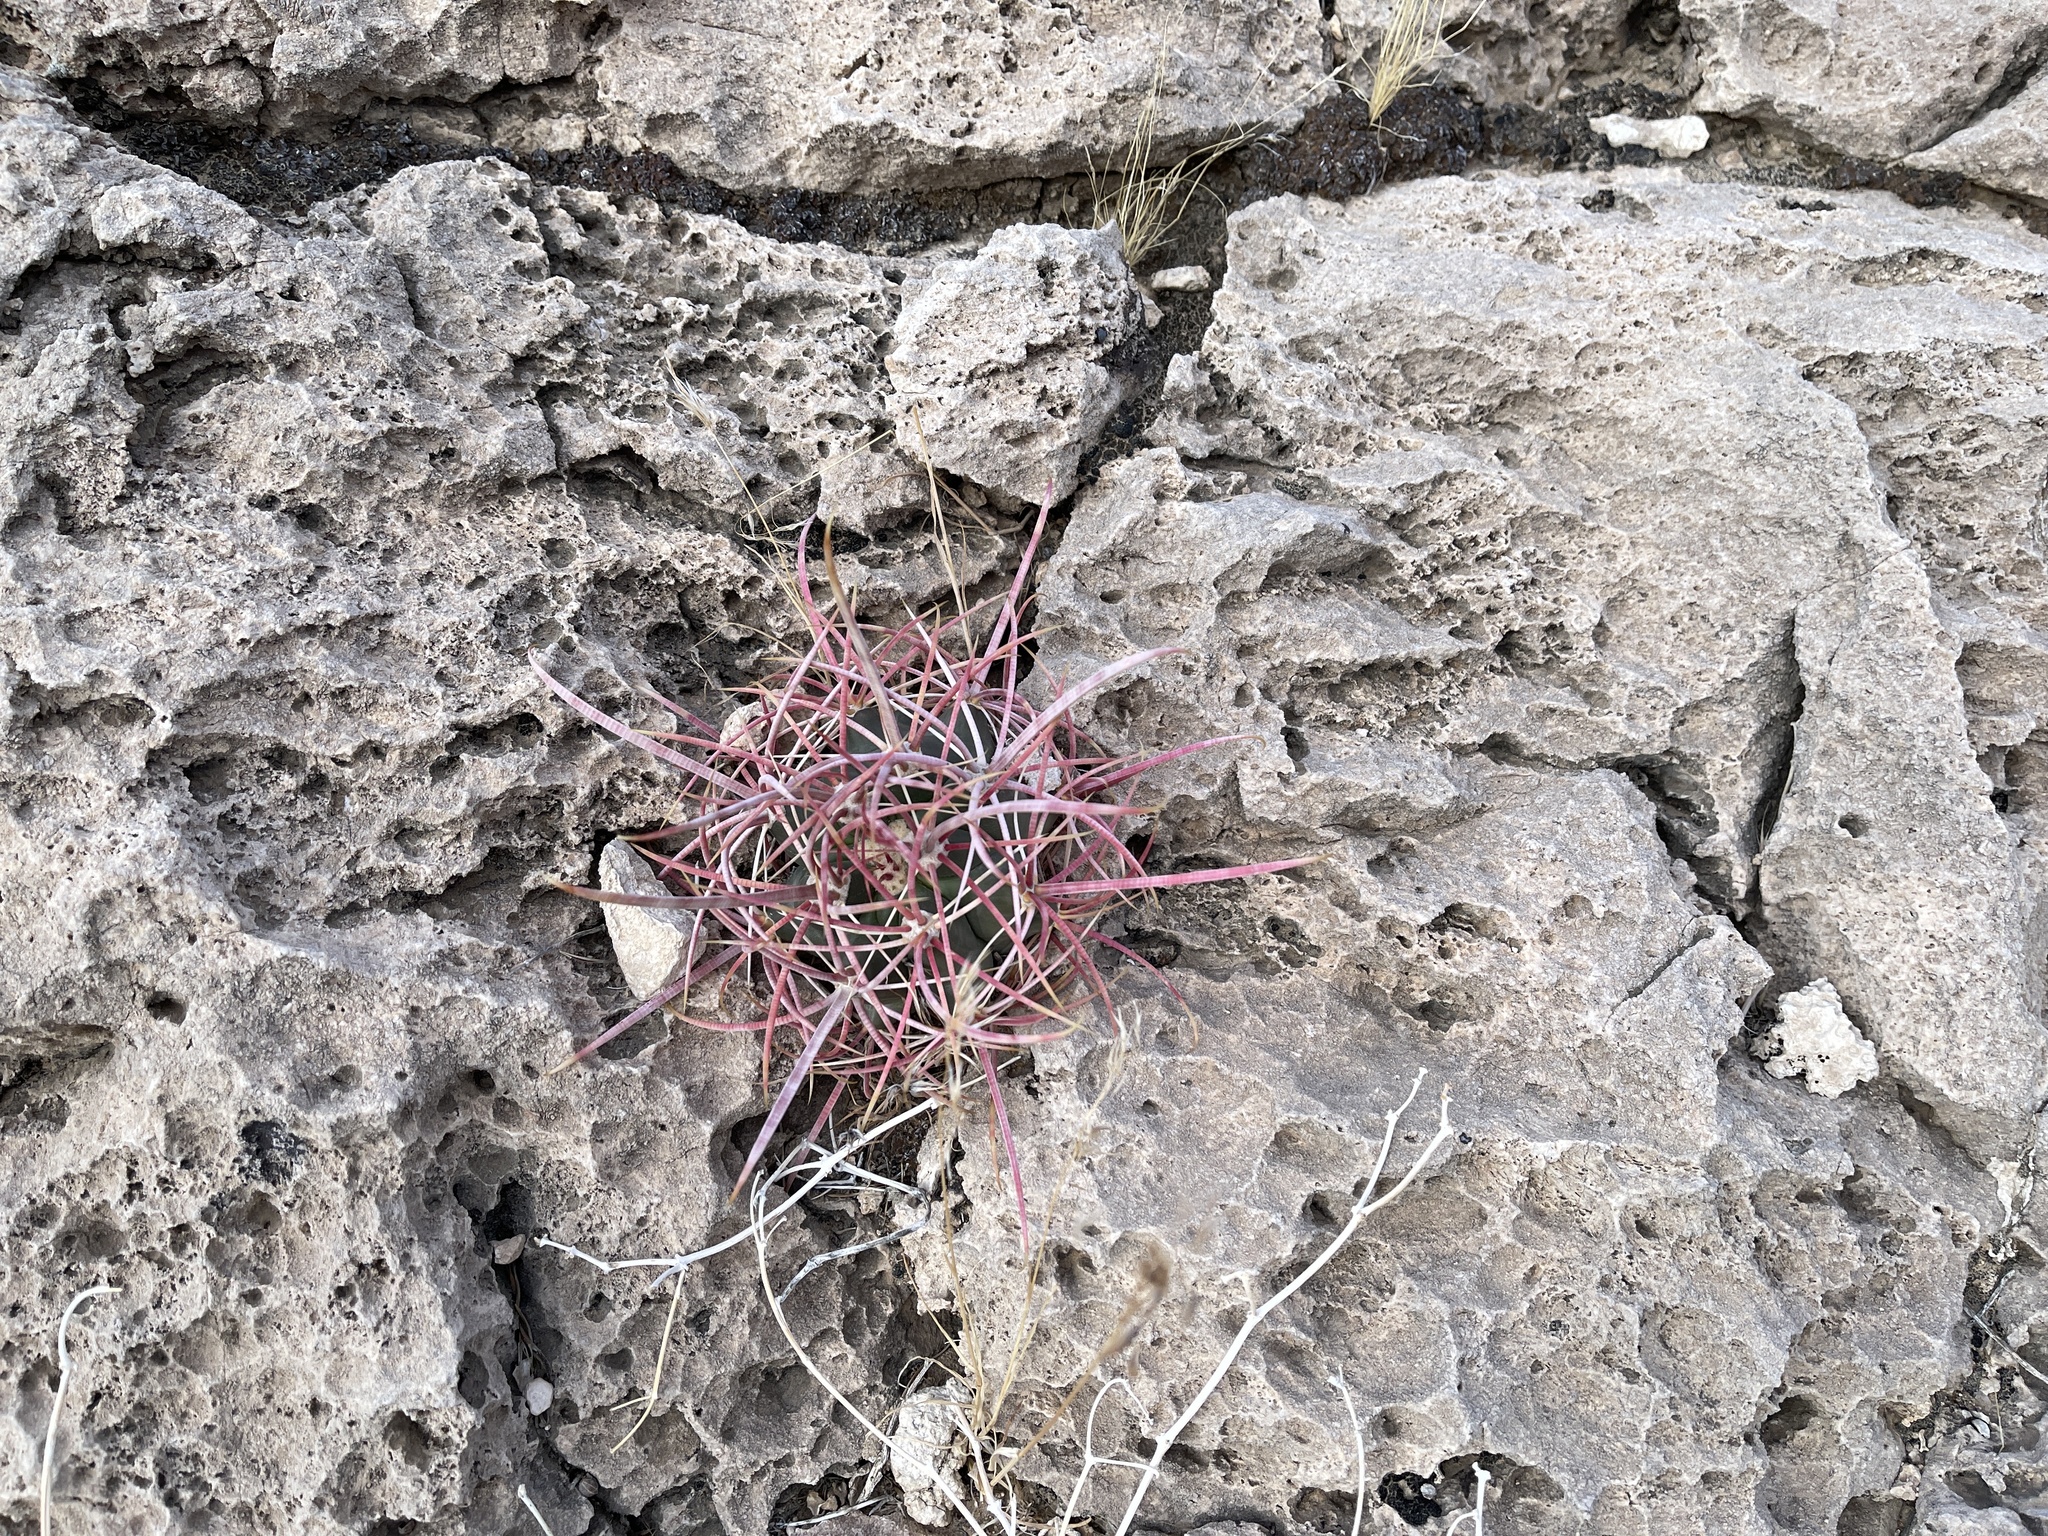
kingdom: Plantae
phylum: Tracheophyta
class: Magnoliopsida
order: Caryophyllales
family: Cactaceae
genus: Ferocactus
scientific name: Ferocactus cylindraceus
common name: California barrel cactus
